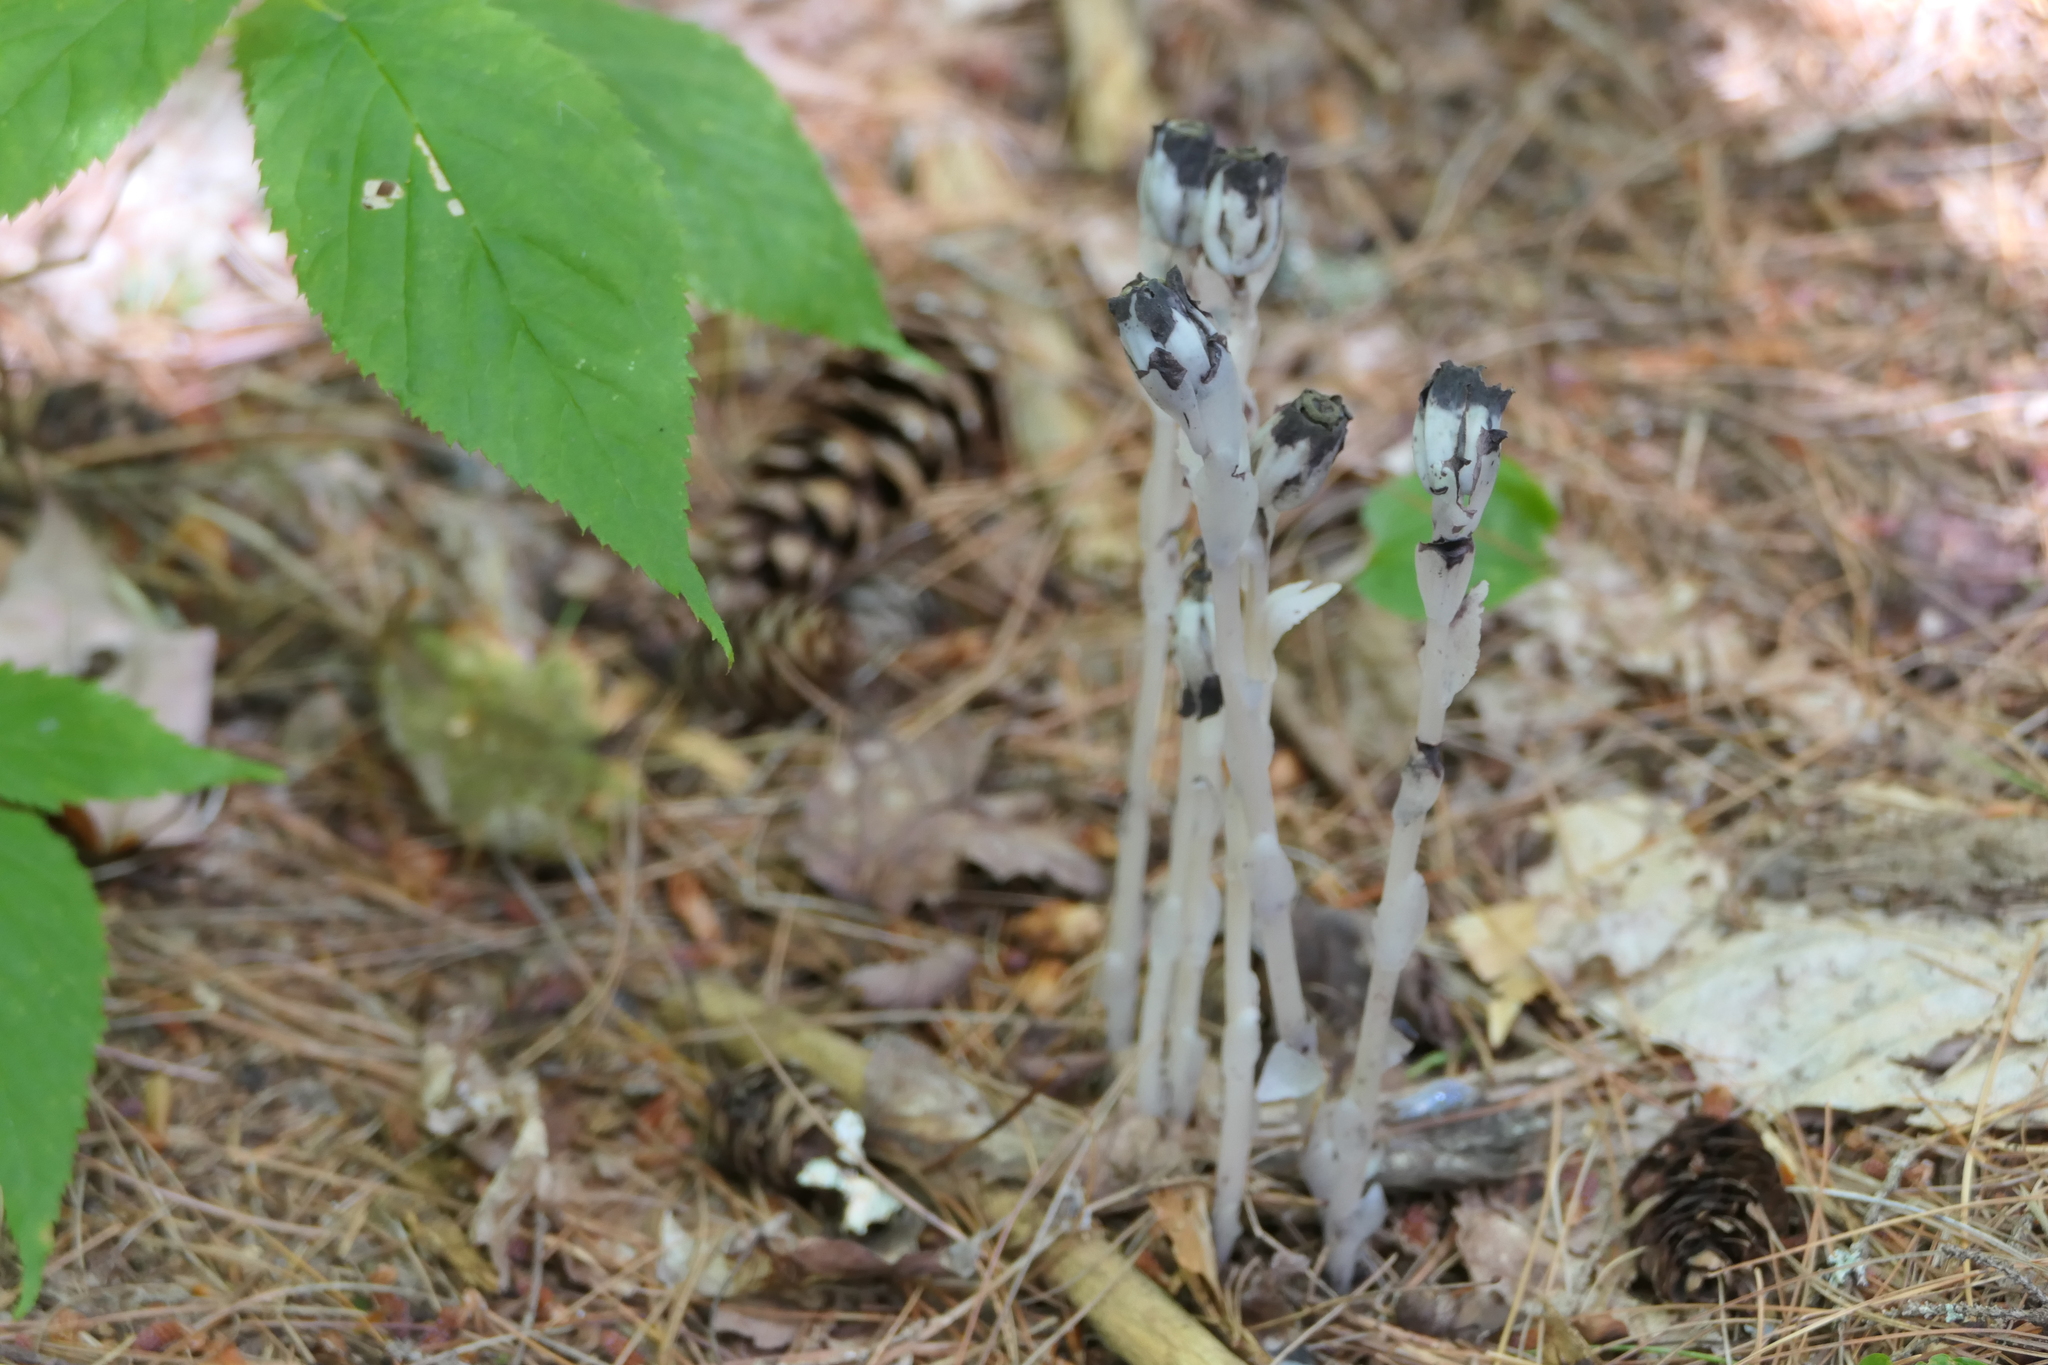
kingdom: Plantae
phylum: Tracheophyta
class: Magnoliopsida
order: Ericales
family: Ericaceae
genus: Monotropa
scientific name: Monotropa uniflora
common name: Convulsion root
